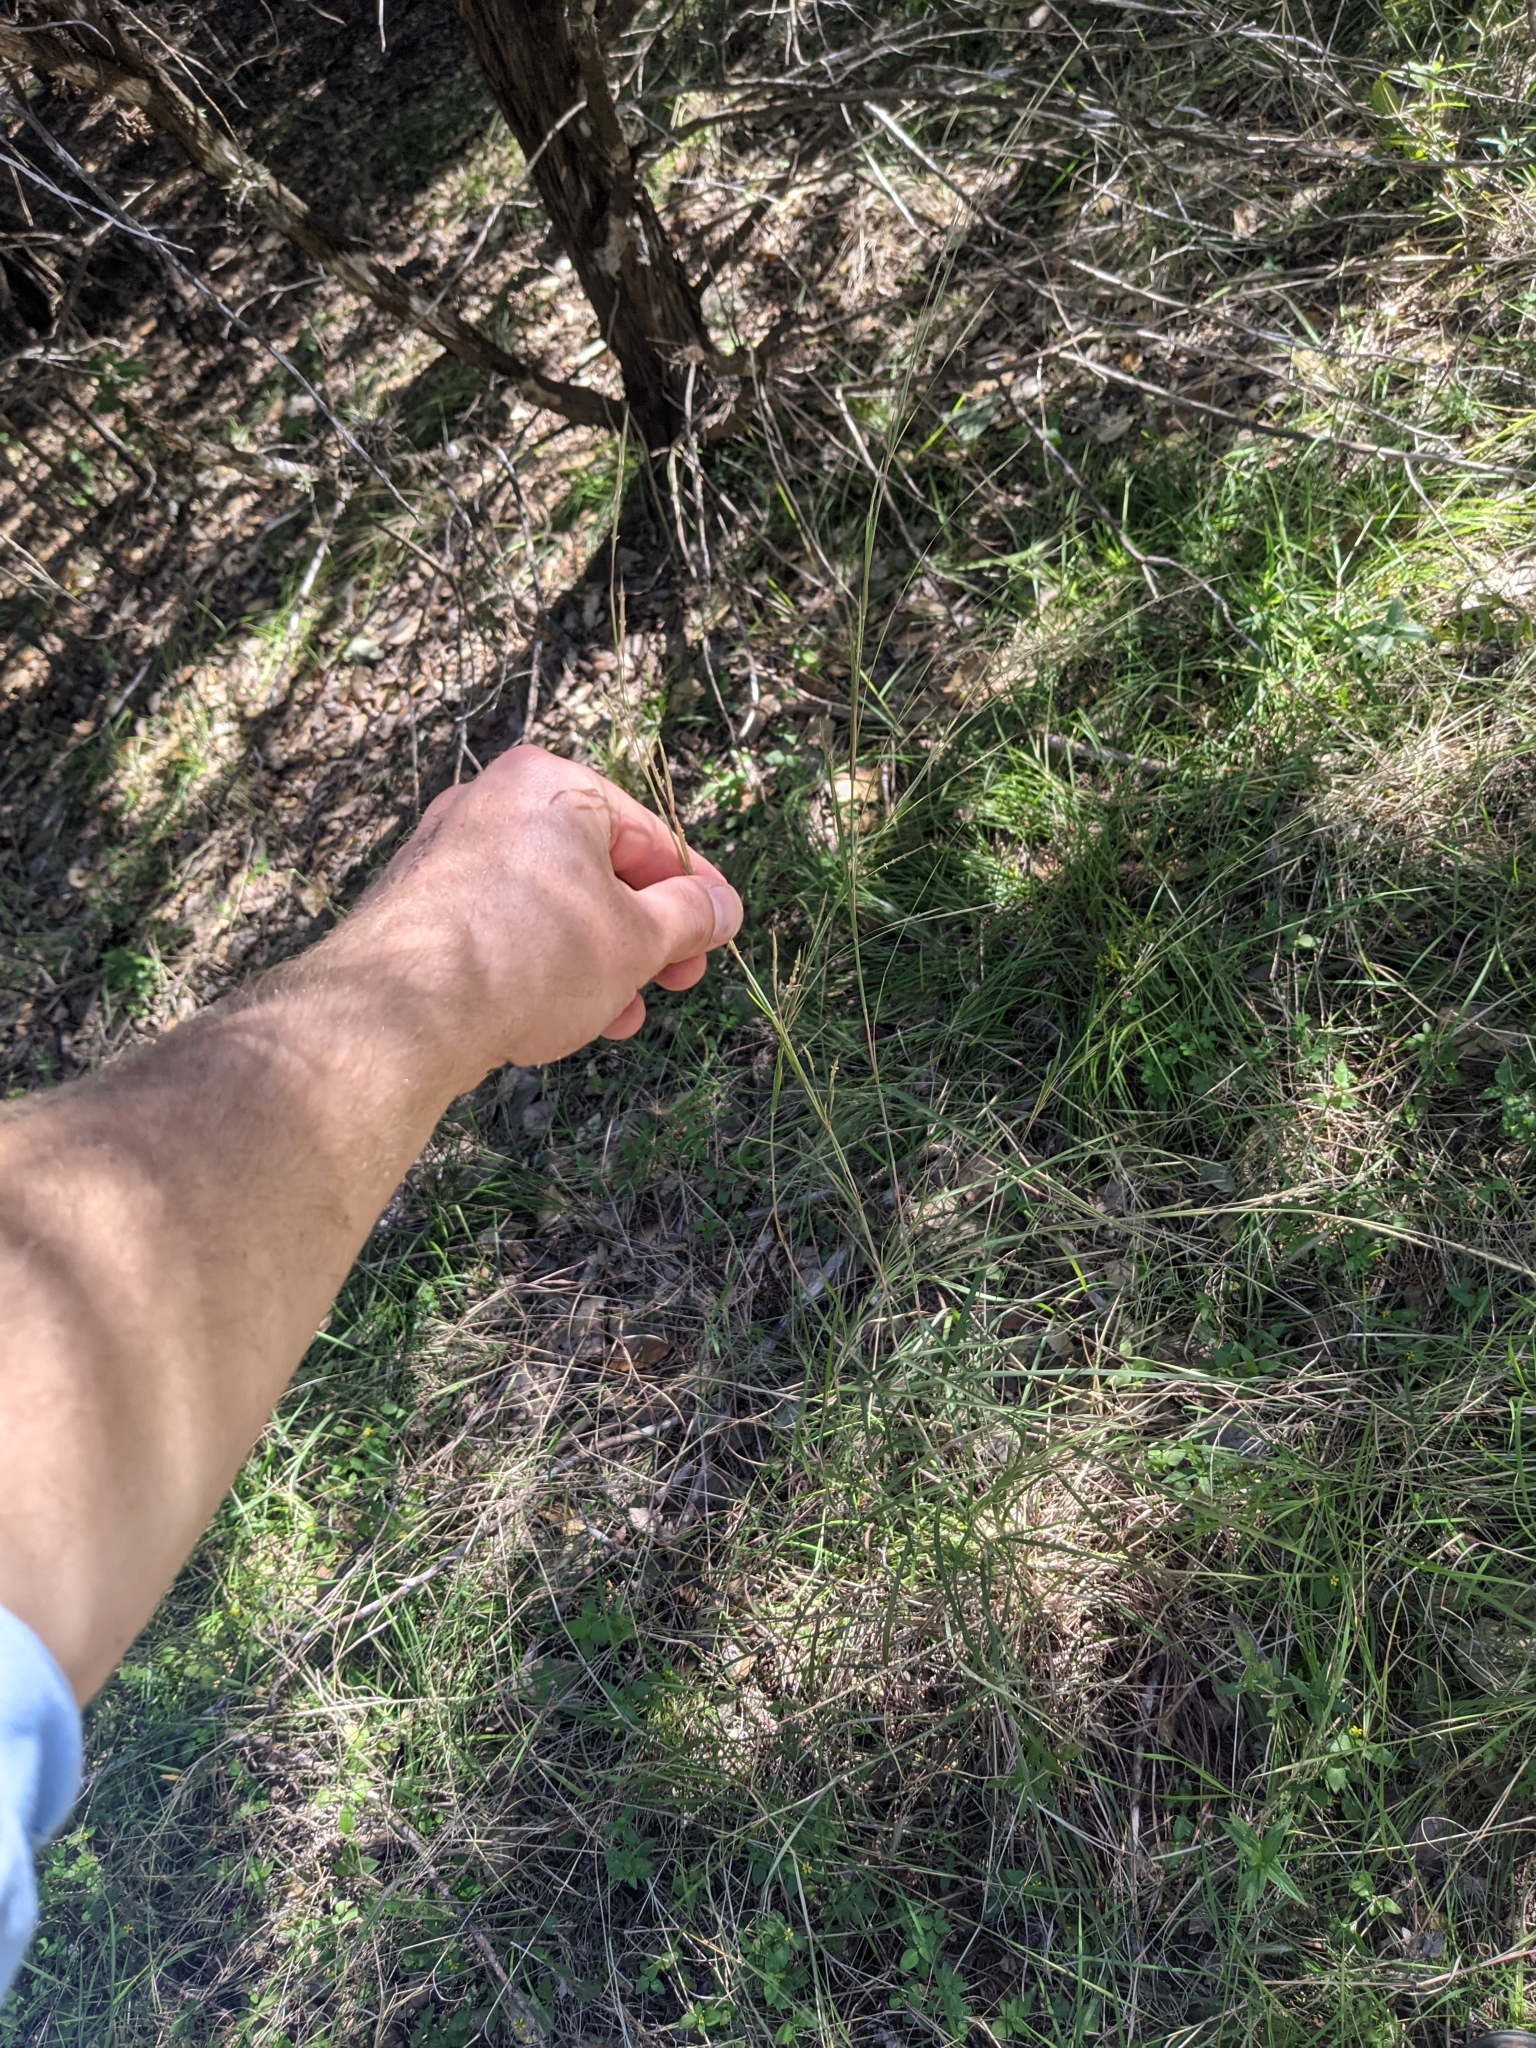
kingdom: Plantae
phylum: Tracheophyta
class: Liliopsida
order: Poales
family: Poaceae
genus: Schizachyrium
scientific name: Schizachyrium scoparium
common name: Little bluestem
